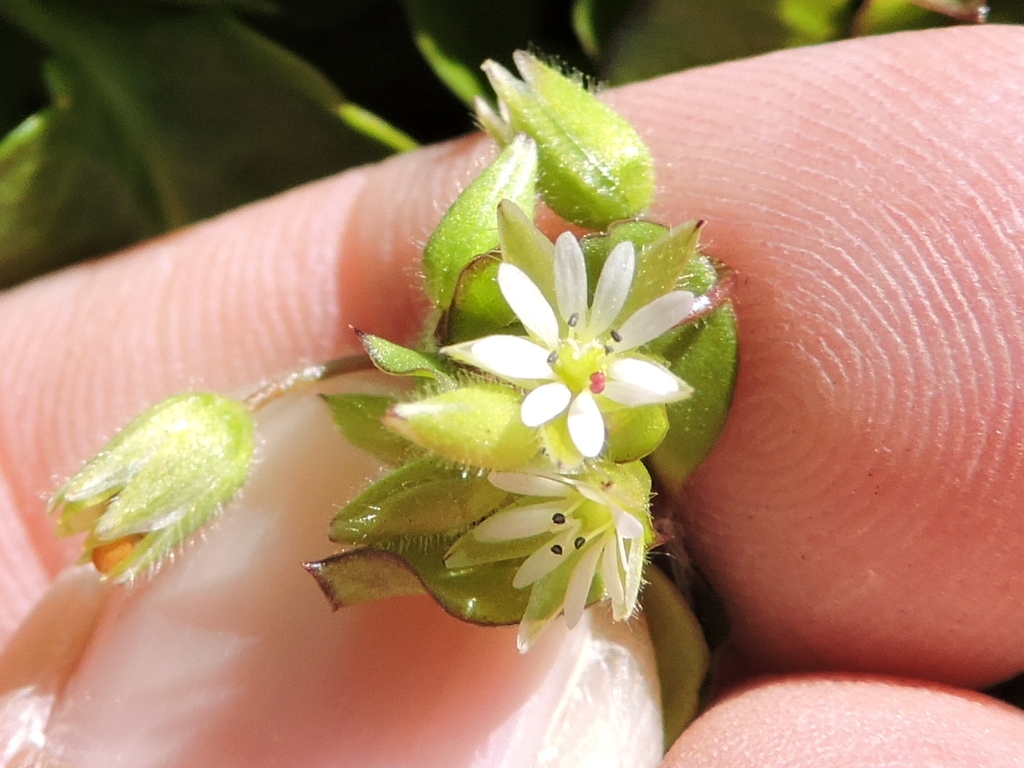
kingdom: Plantae
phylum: Tracheophyta
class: Magnoliopsida
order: Caryophyllales
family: Caryophyllaceae
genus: Stellaria
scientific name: Stellaria media
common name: Common chickweed
